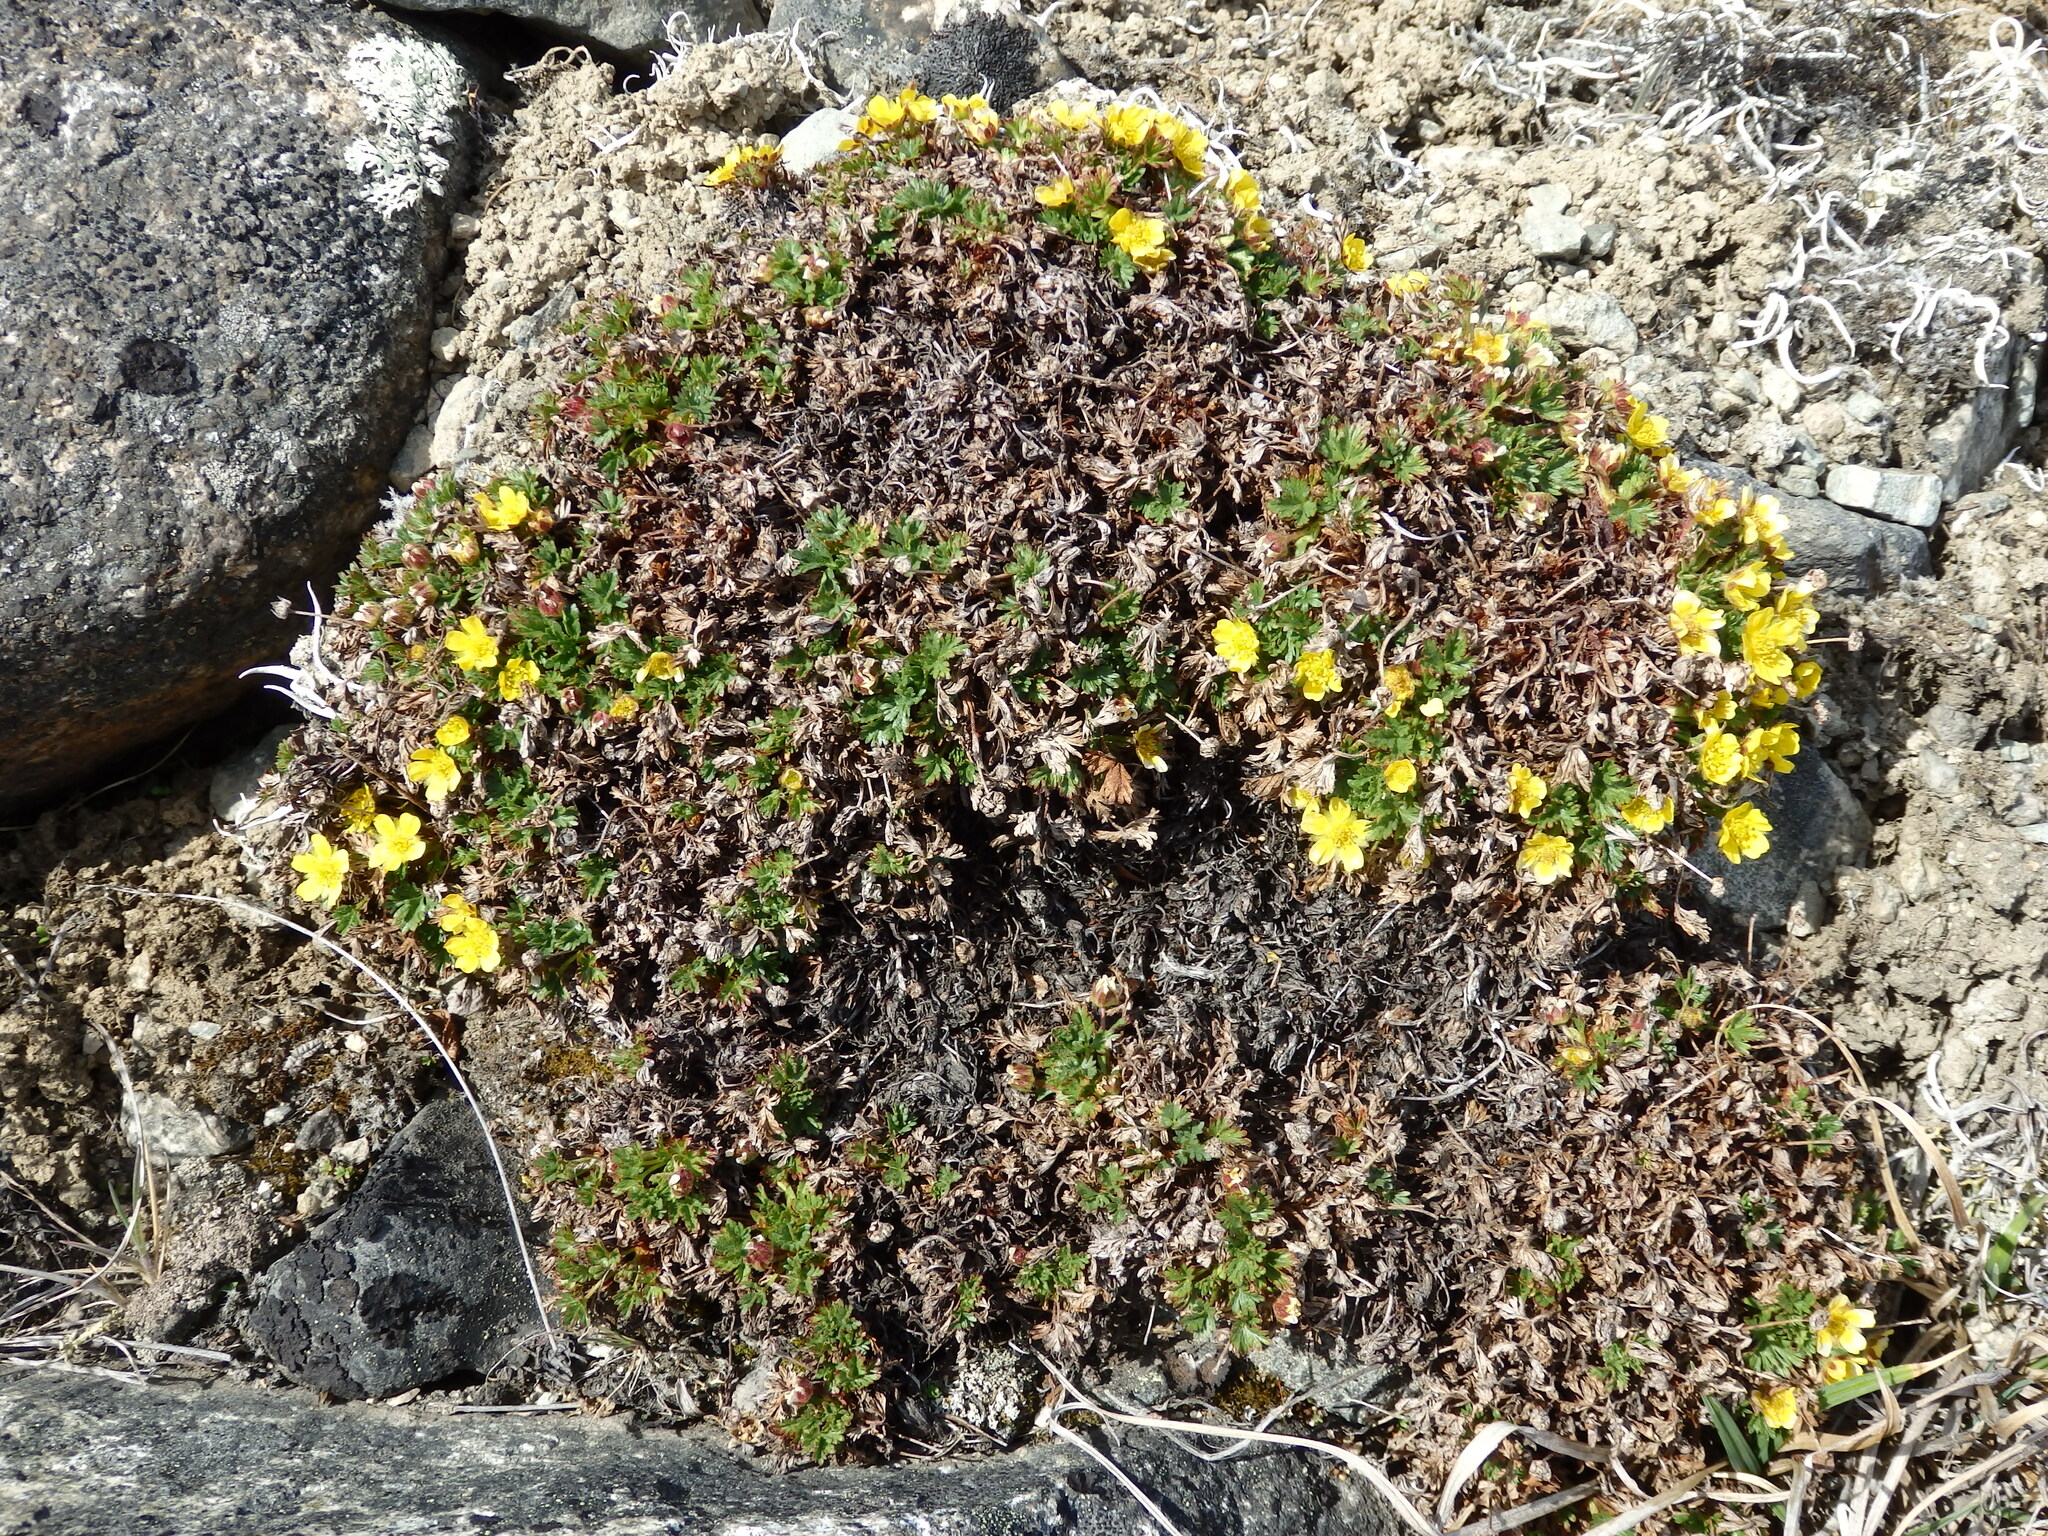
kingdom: Plantae
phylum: Tracheophyta
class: Magnoliopsida
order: Rosales
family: Rosaceae
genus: Potentilla
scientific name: Potentilla elegans
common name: Elegant cinquefoil
